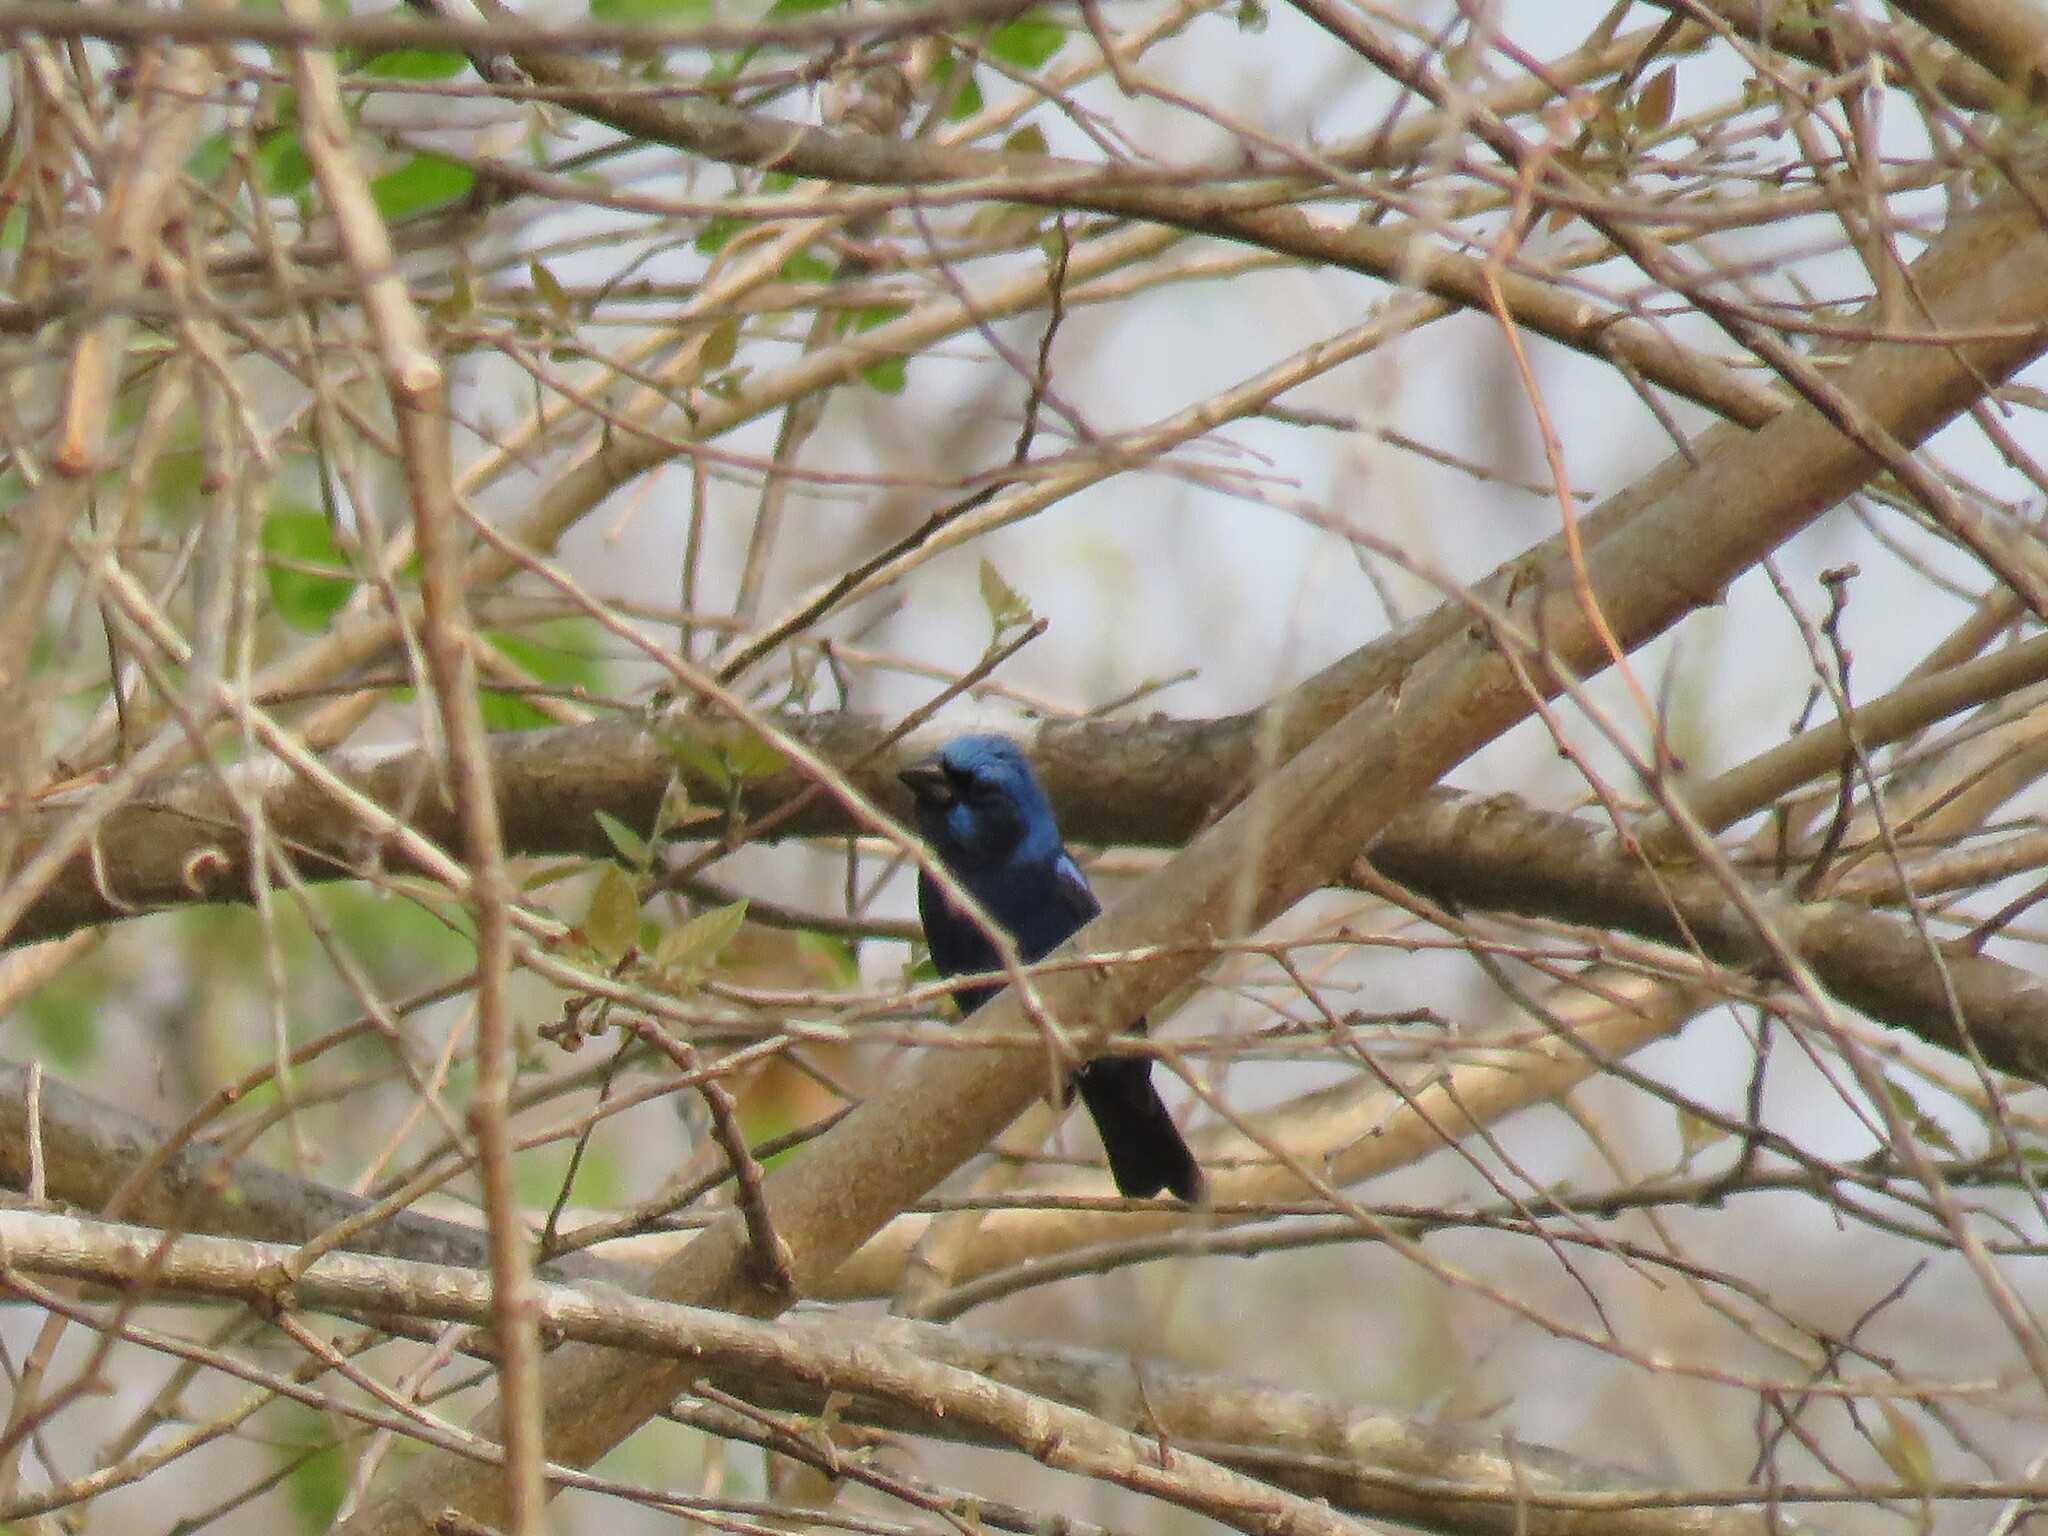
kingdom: Animalia
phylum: Chordata
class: Aves
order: Passeriformes
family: Cardinalidae
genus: Cyanocompsa
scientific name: Cyanocompsa parellina
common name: Blue bunting
